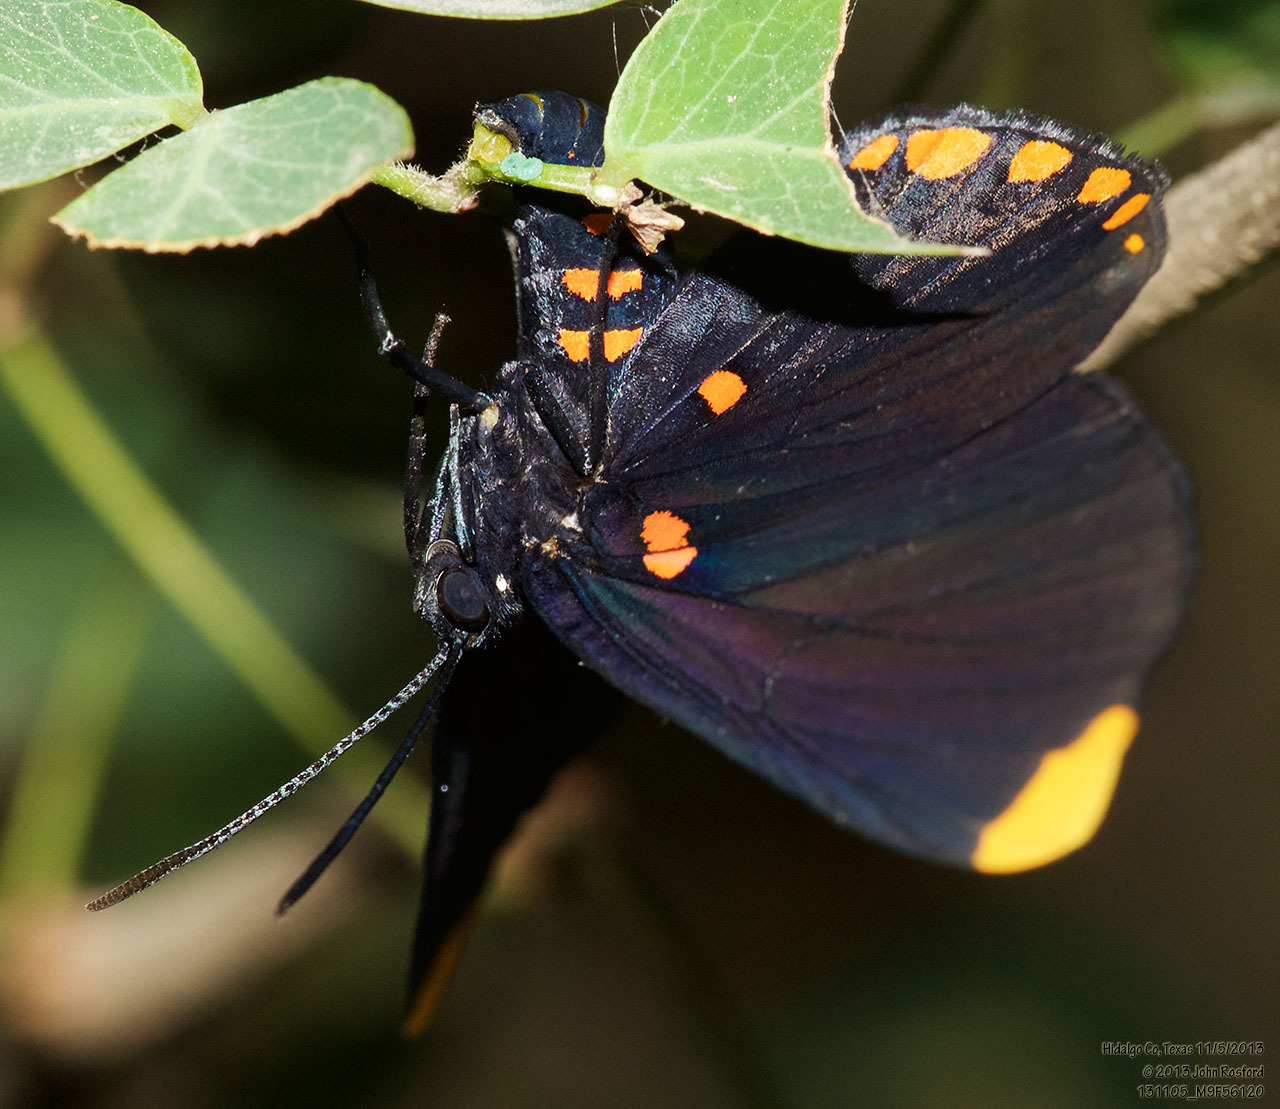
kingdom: Animalia
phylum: Arthropoda
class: Insecta
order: Lepidoptera
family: Lycaenidae
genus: Melanis
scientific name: Melanis pixe
